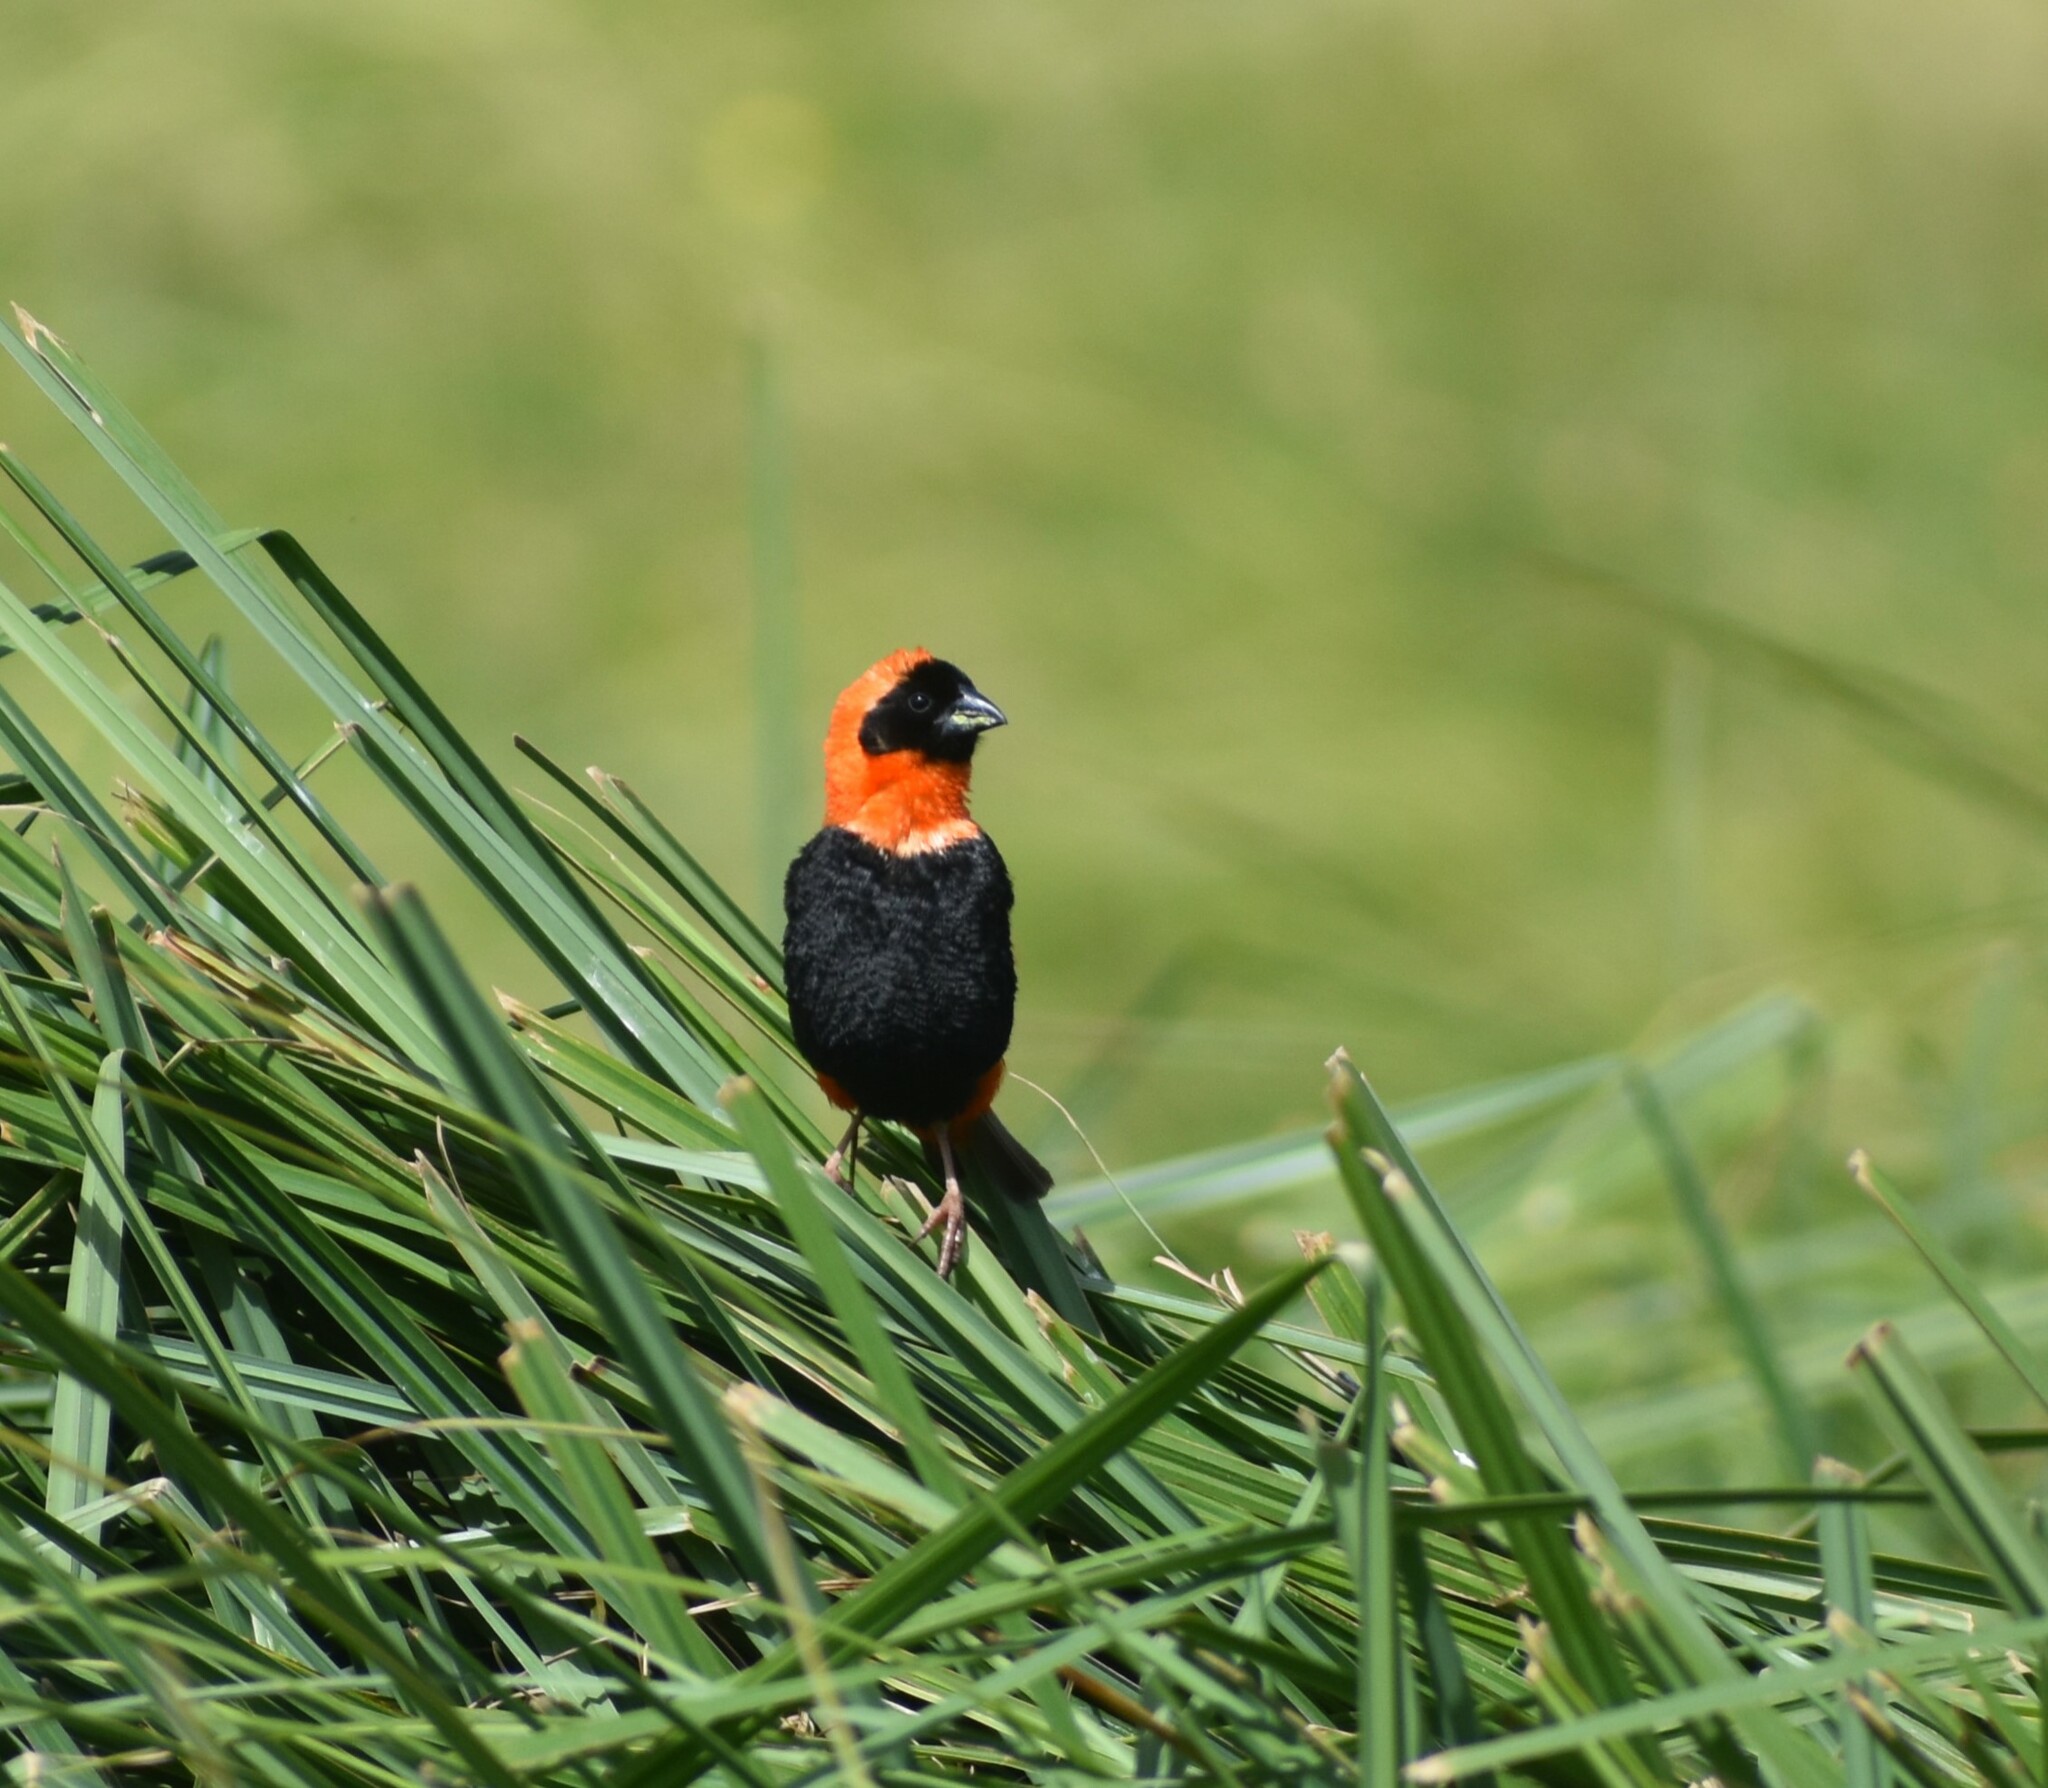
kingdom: Animalia
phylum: Chordata
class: Aves
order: Passeriformes
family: Ploceidae
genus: Euplectes
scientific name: Euplectes orix
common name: Southern red bishop
